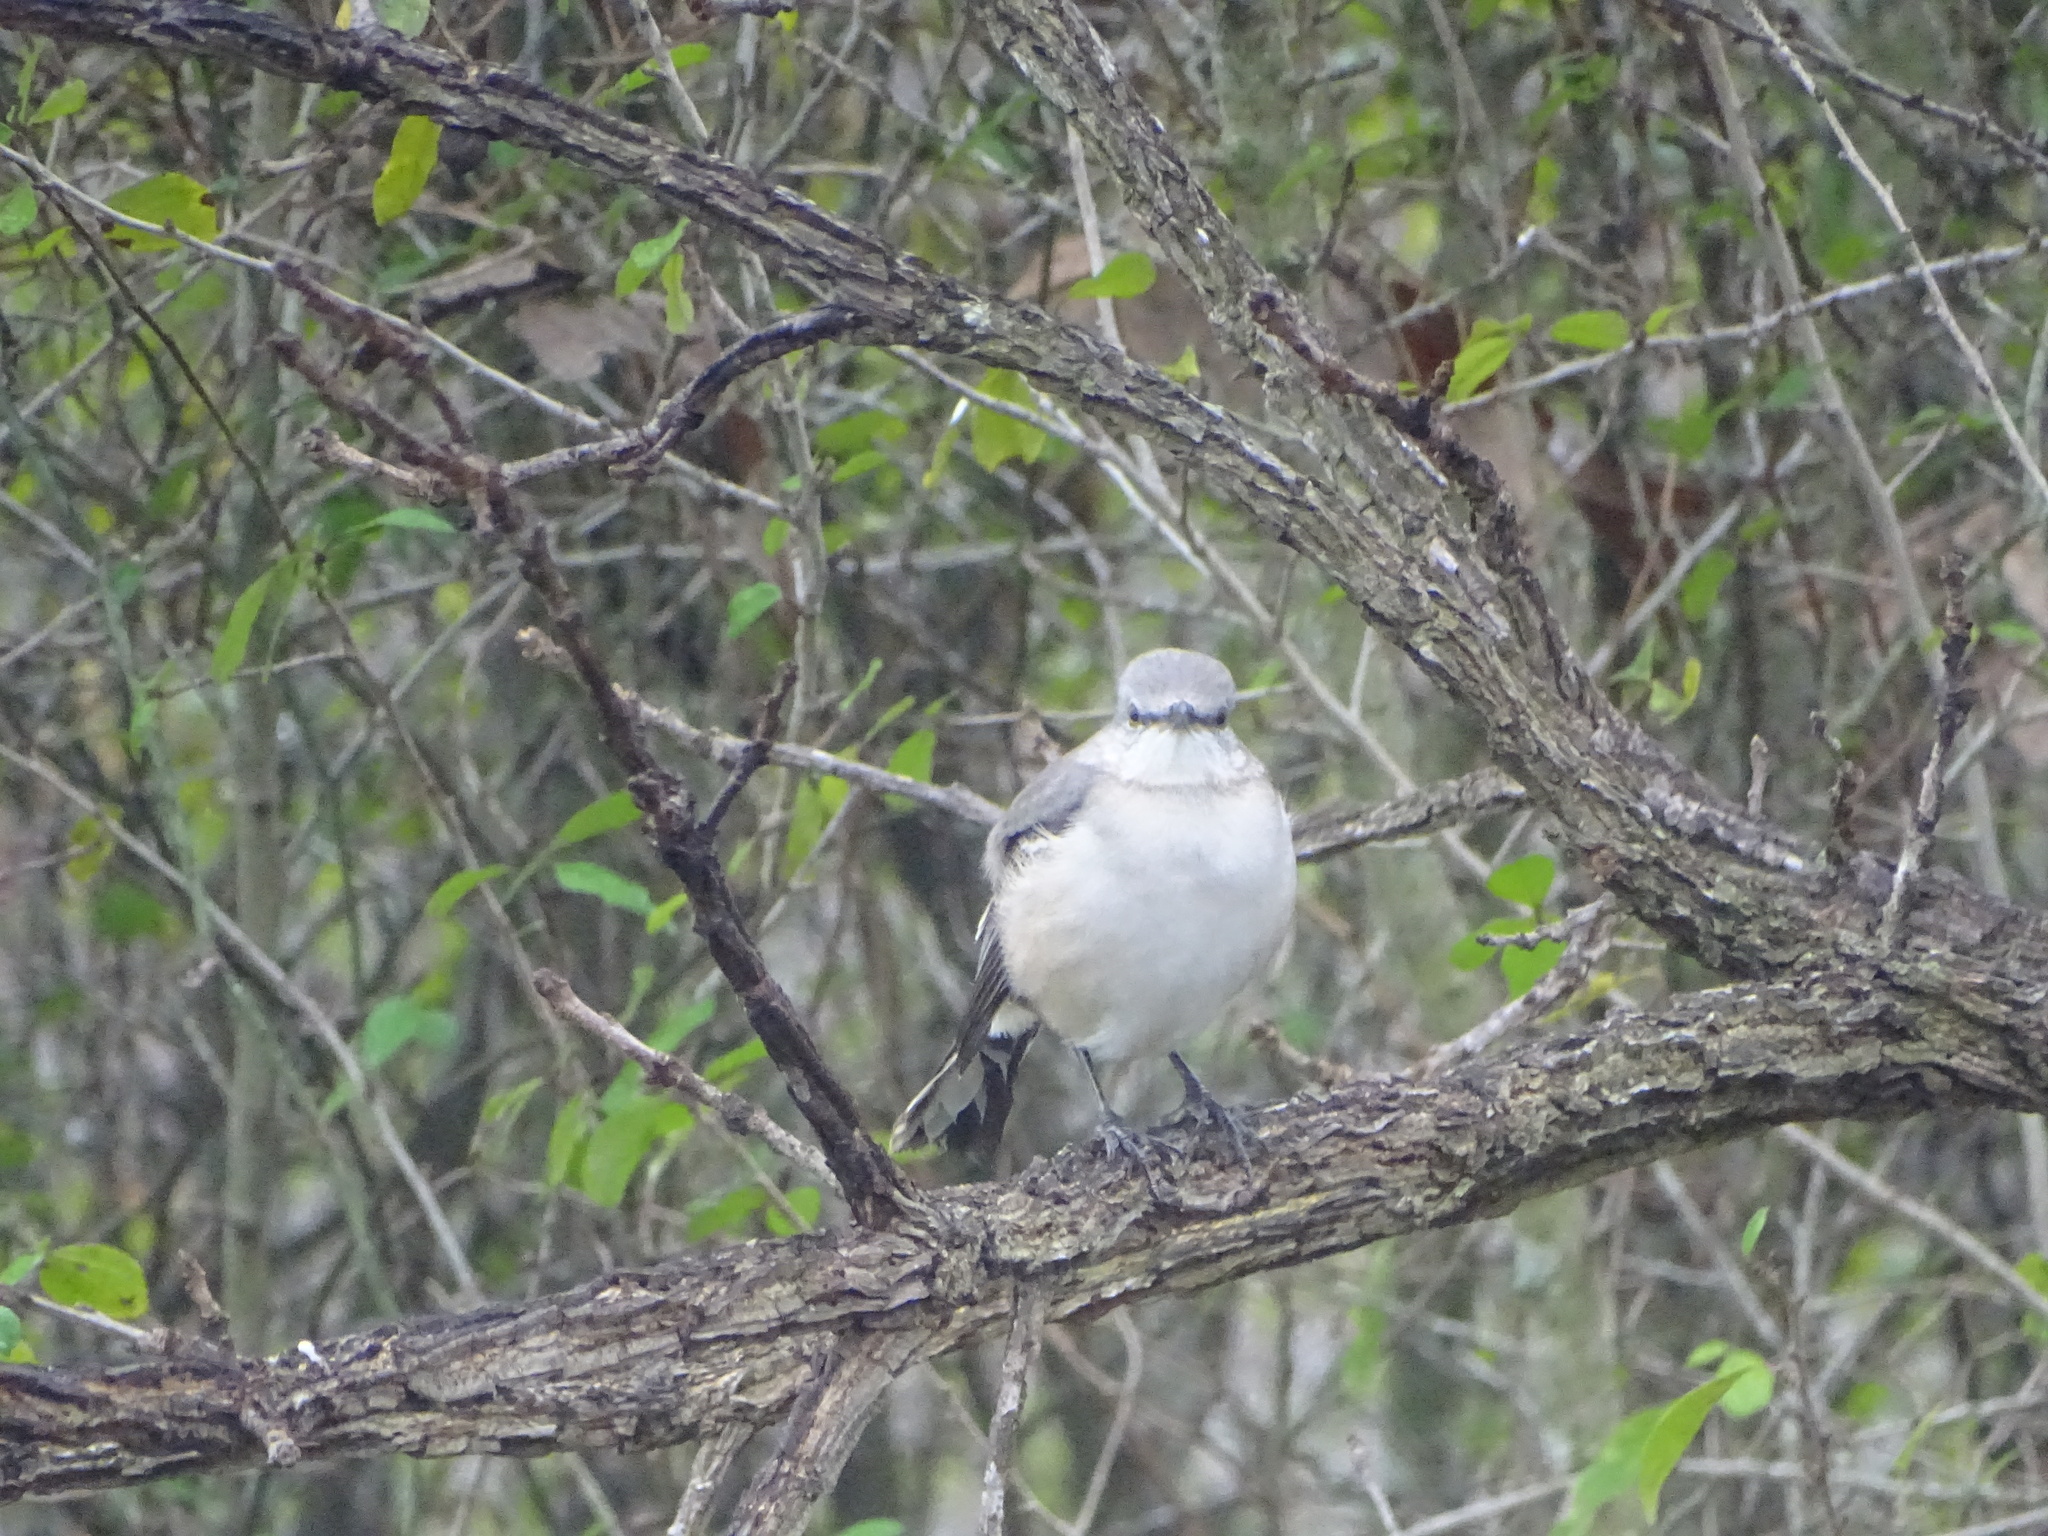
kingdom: Animalia
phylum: Chordata
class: Aves
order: Passeriformes
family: Mimidae
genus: Mimus
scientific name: Mimus polyglottos
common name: Northern mockingbird
